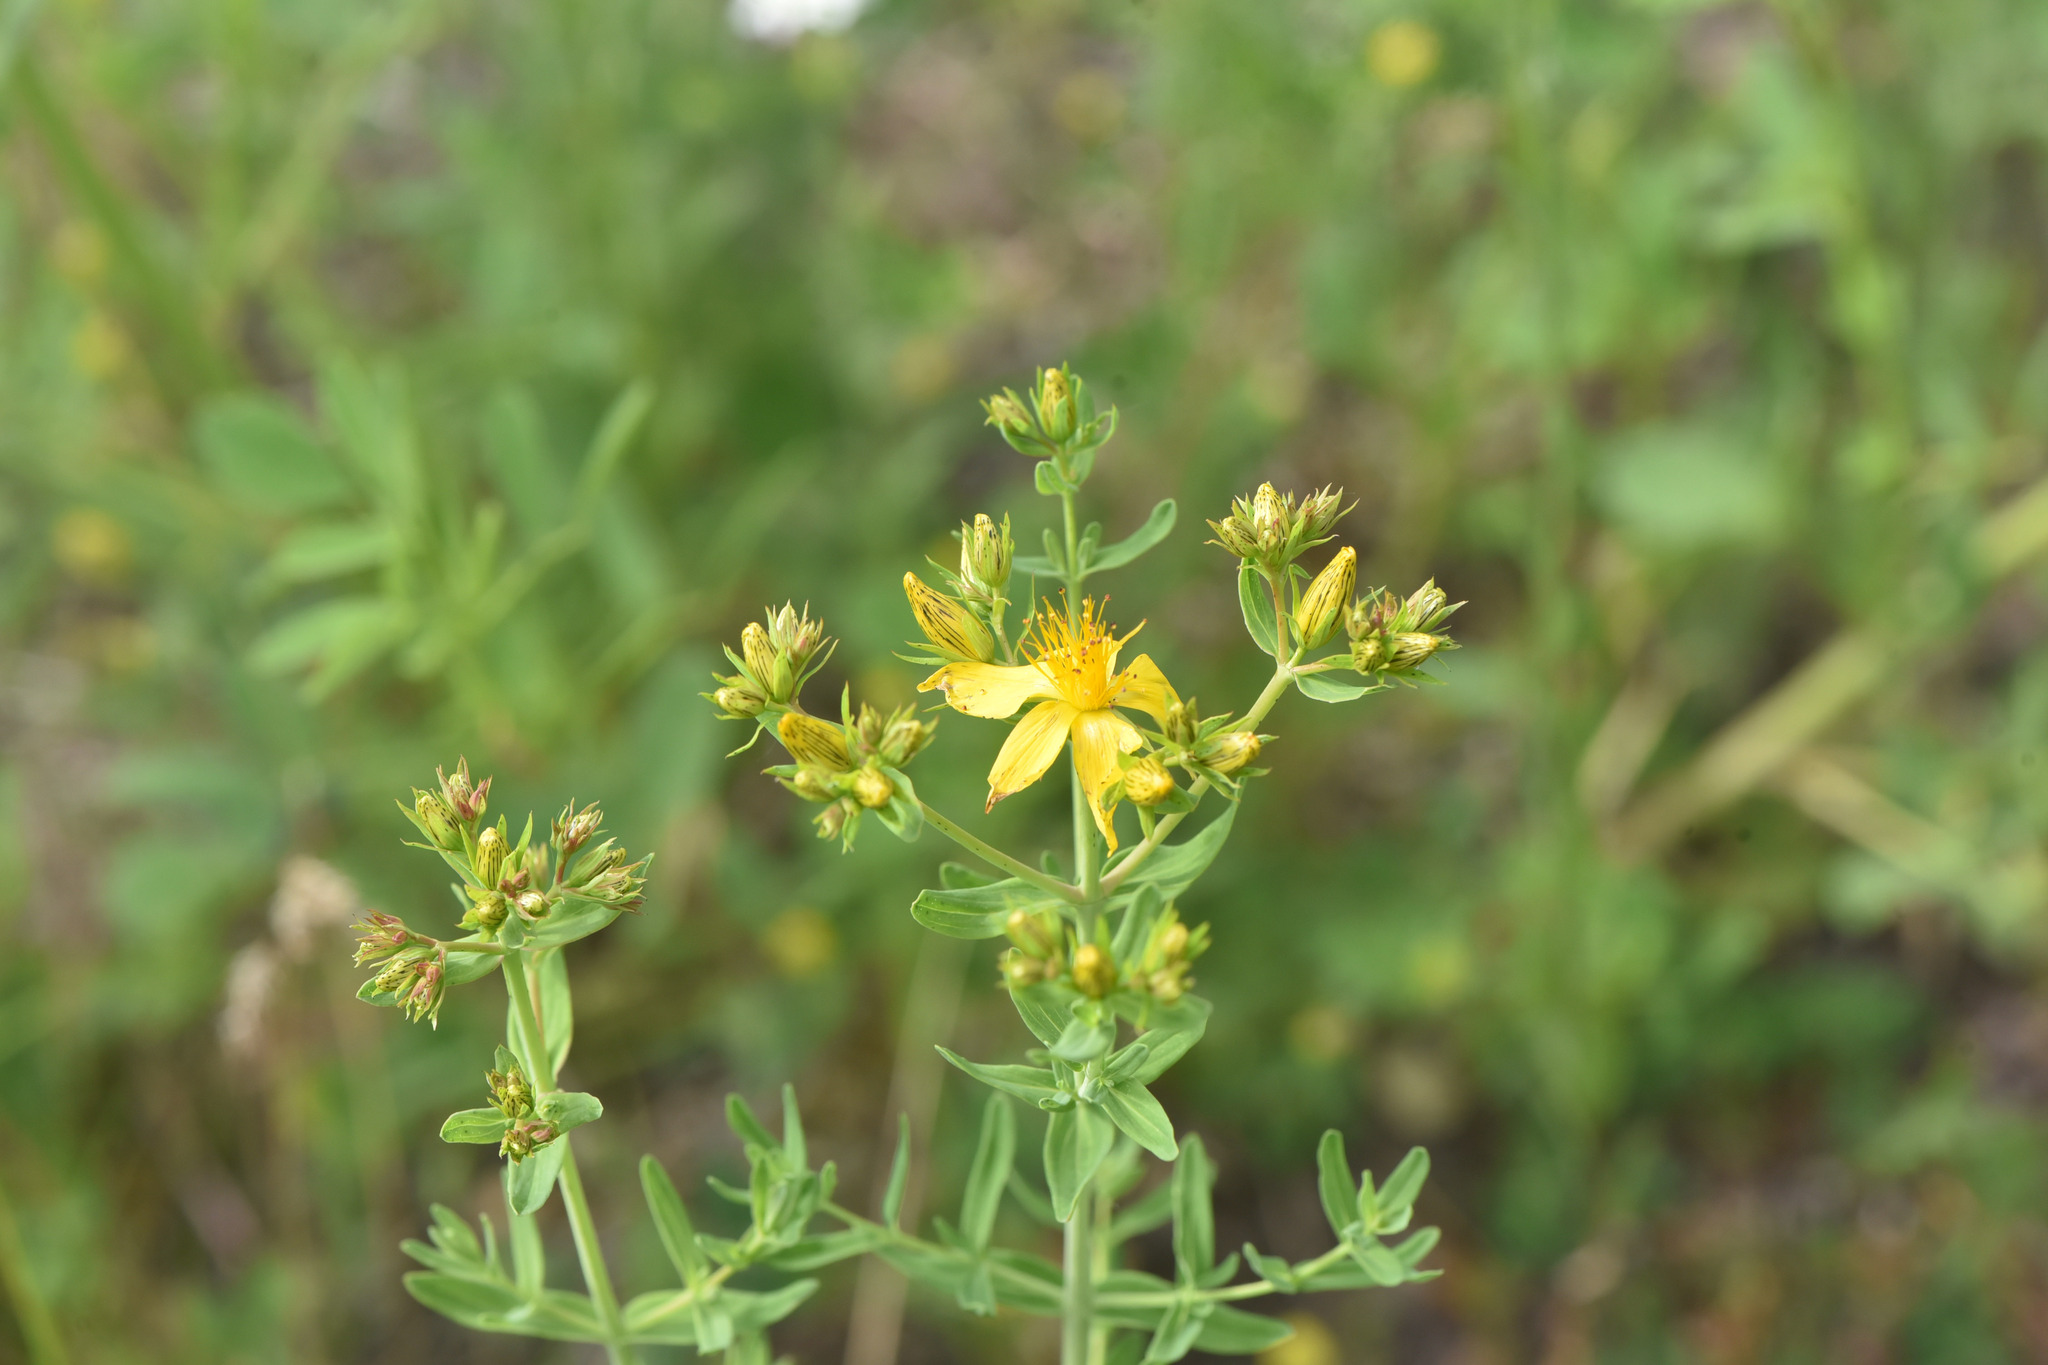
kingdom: Plantae
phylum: Tracheophyta
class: Magnoliopsida
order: Malpighiales
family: Hypericaceae
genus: Hypericum
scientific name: Hypericum perforatum
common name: Common st. johnswort
